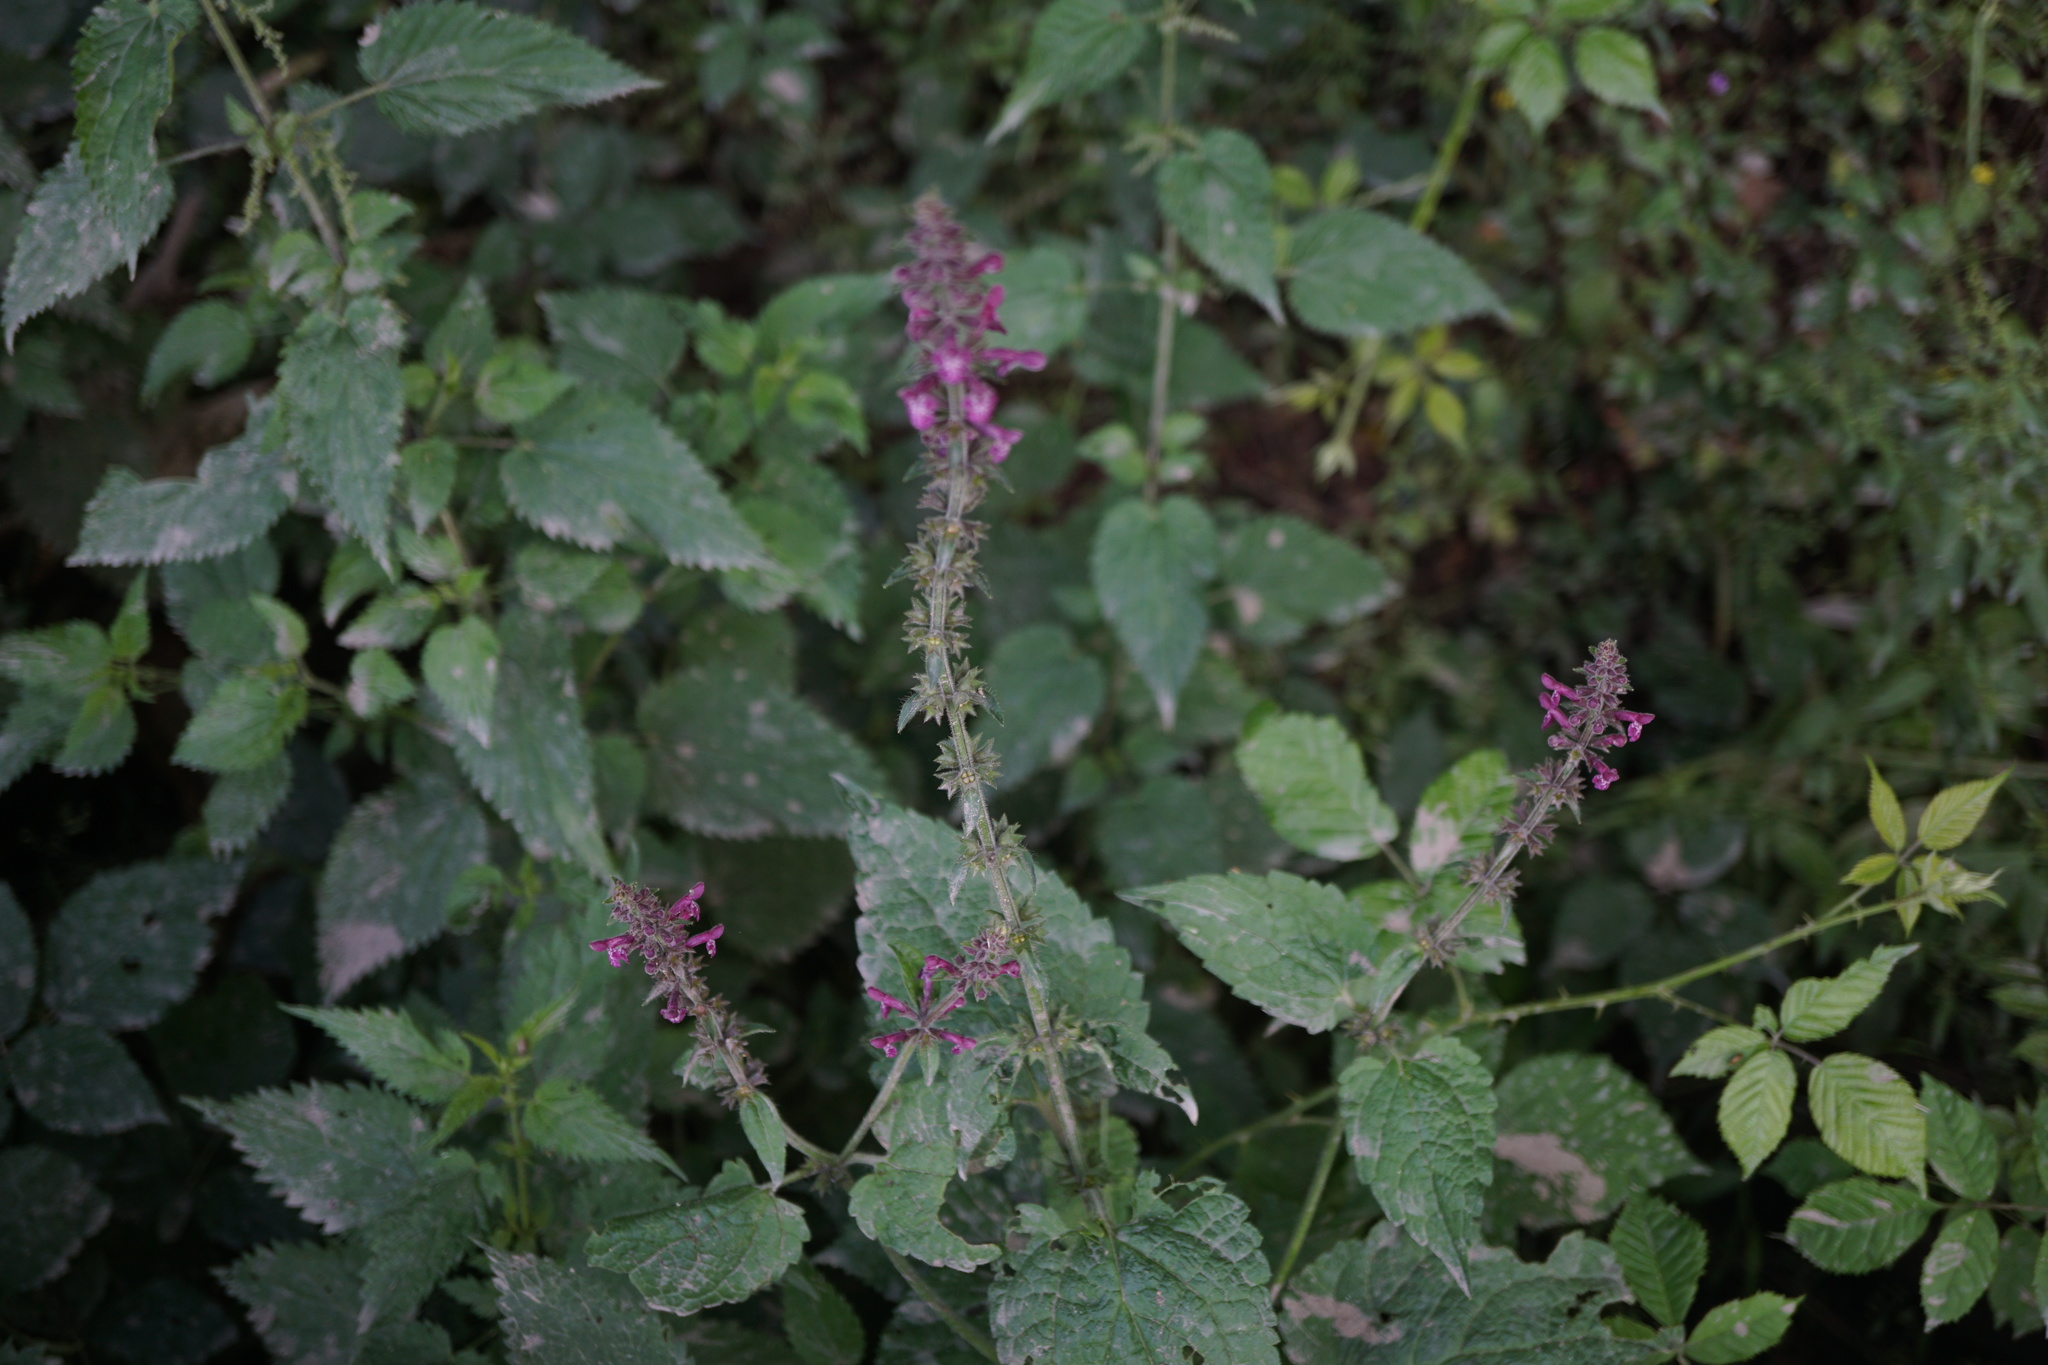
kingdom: Plantae
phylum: Tracheophyta
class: Magnoliopsida
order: Lamiales
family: Lamiaceae
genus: Stachys
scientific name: Stachys sylvatica
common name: Hedge woundwort
